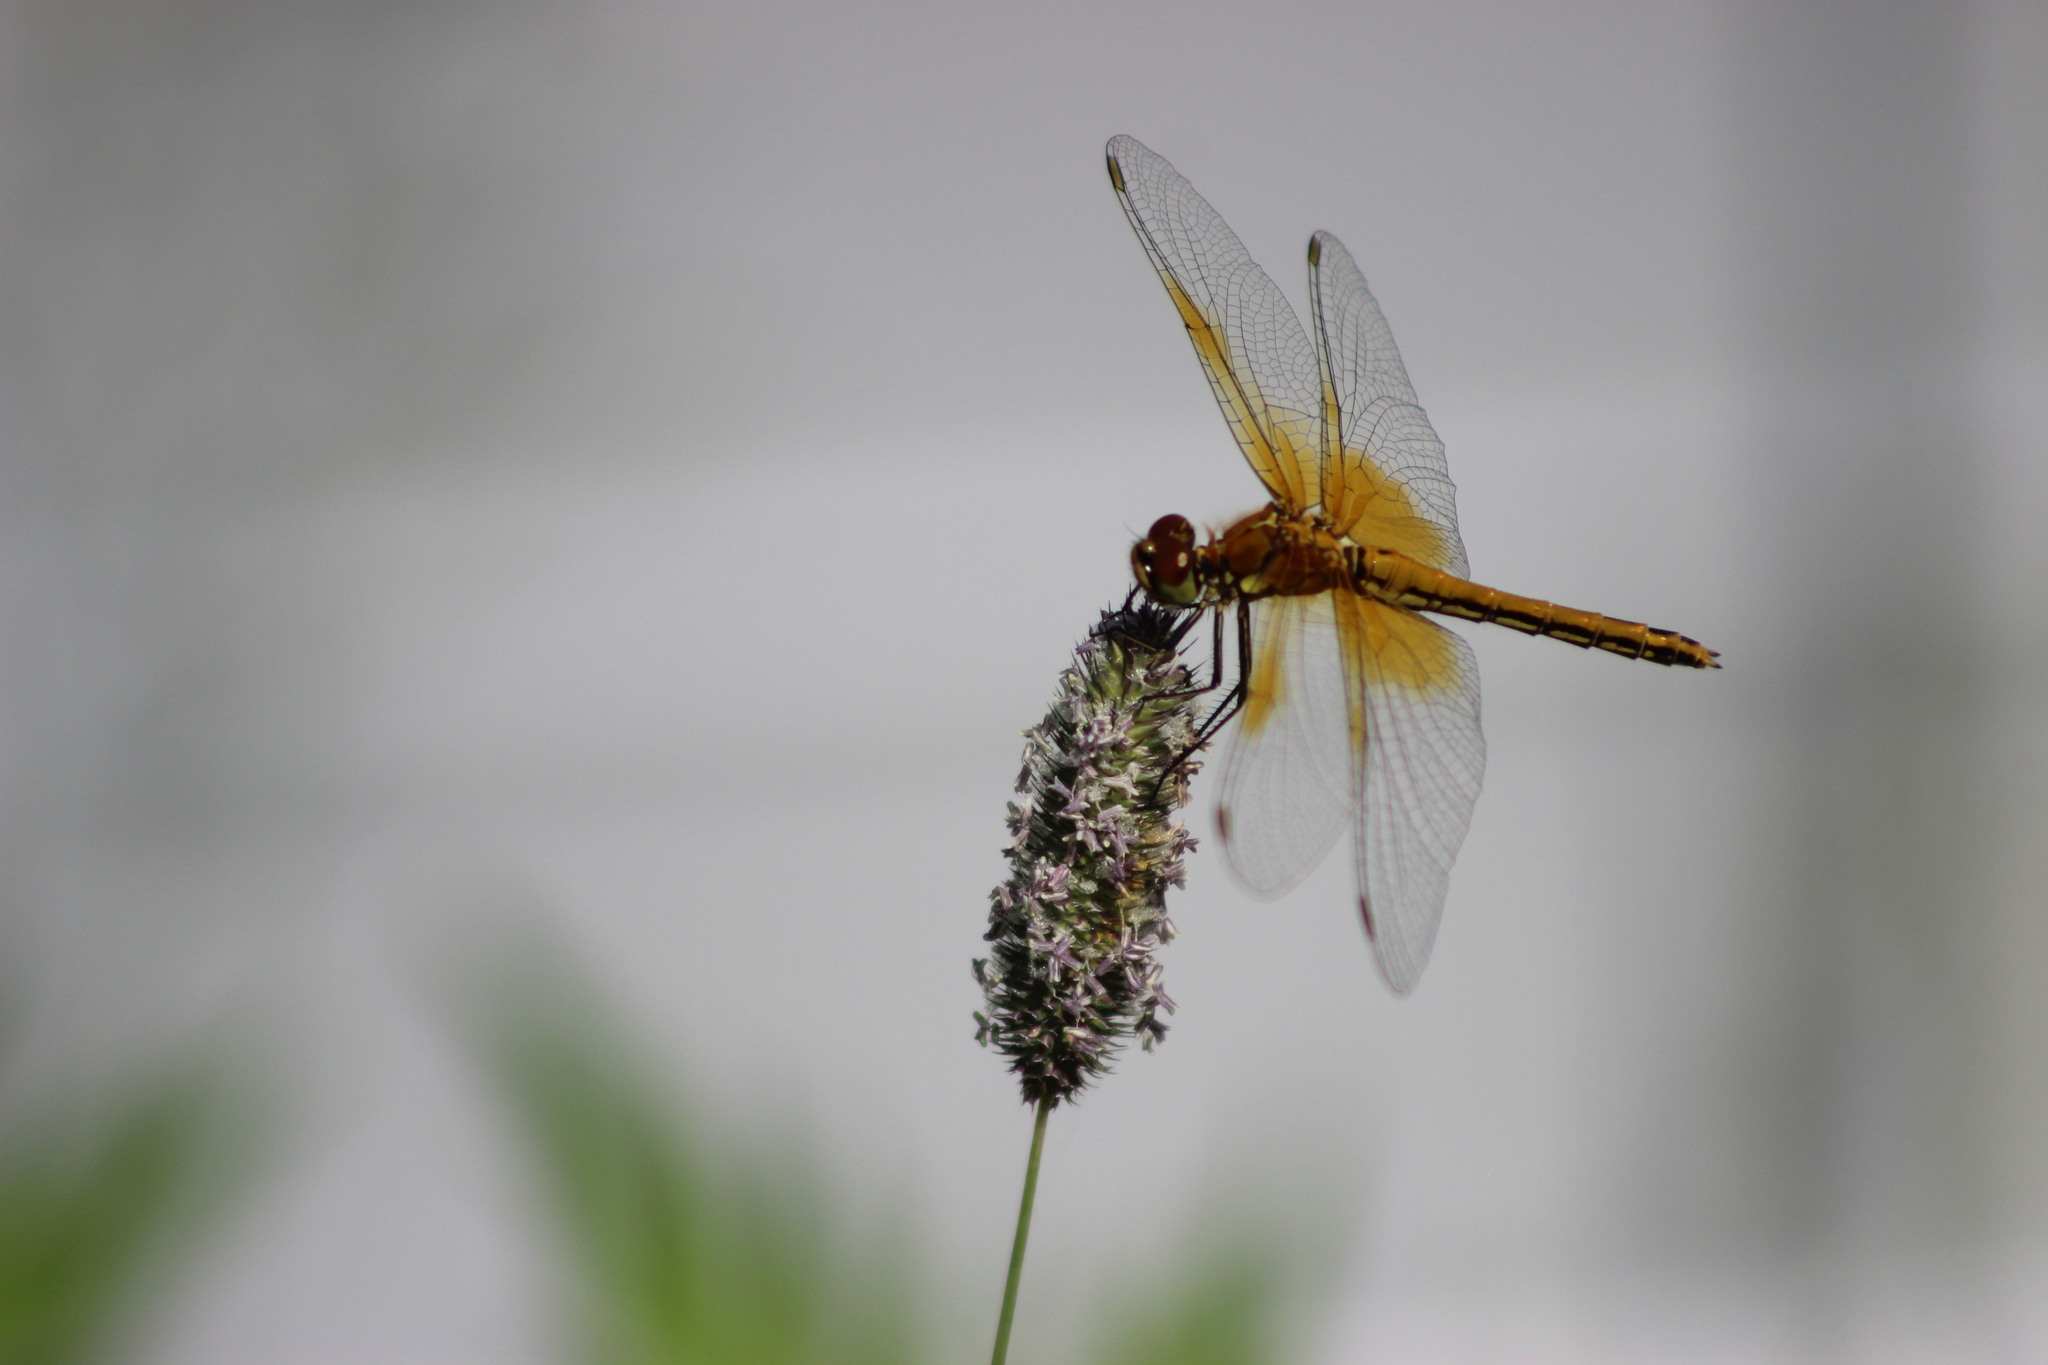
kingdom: Animalia
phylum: Arthropoda
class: Insecta
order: Odonata
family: Libellulidae
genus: Sympetrum
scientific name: Sympetrum flaveolum
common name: Yellow-winged darter
